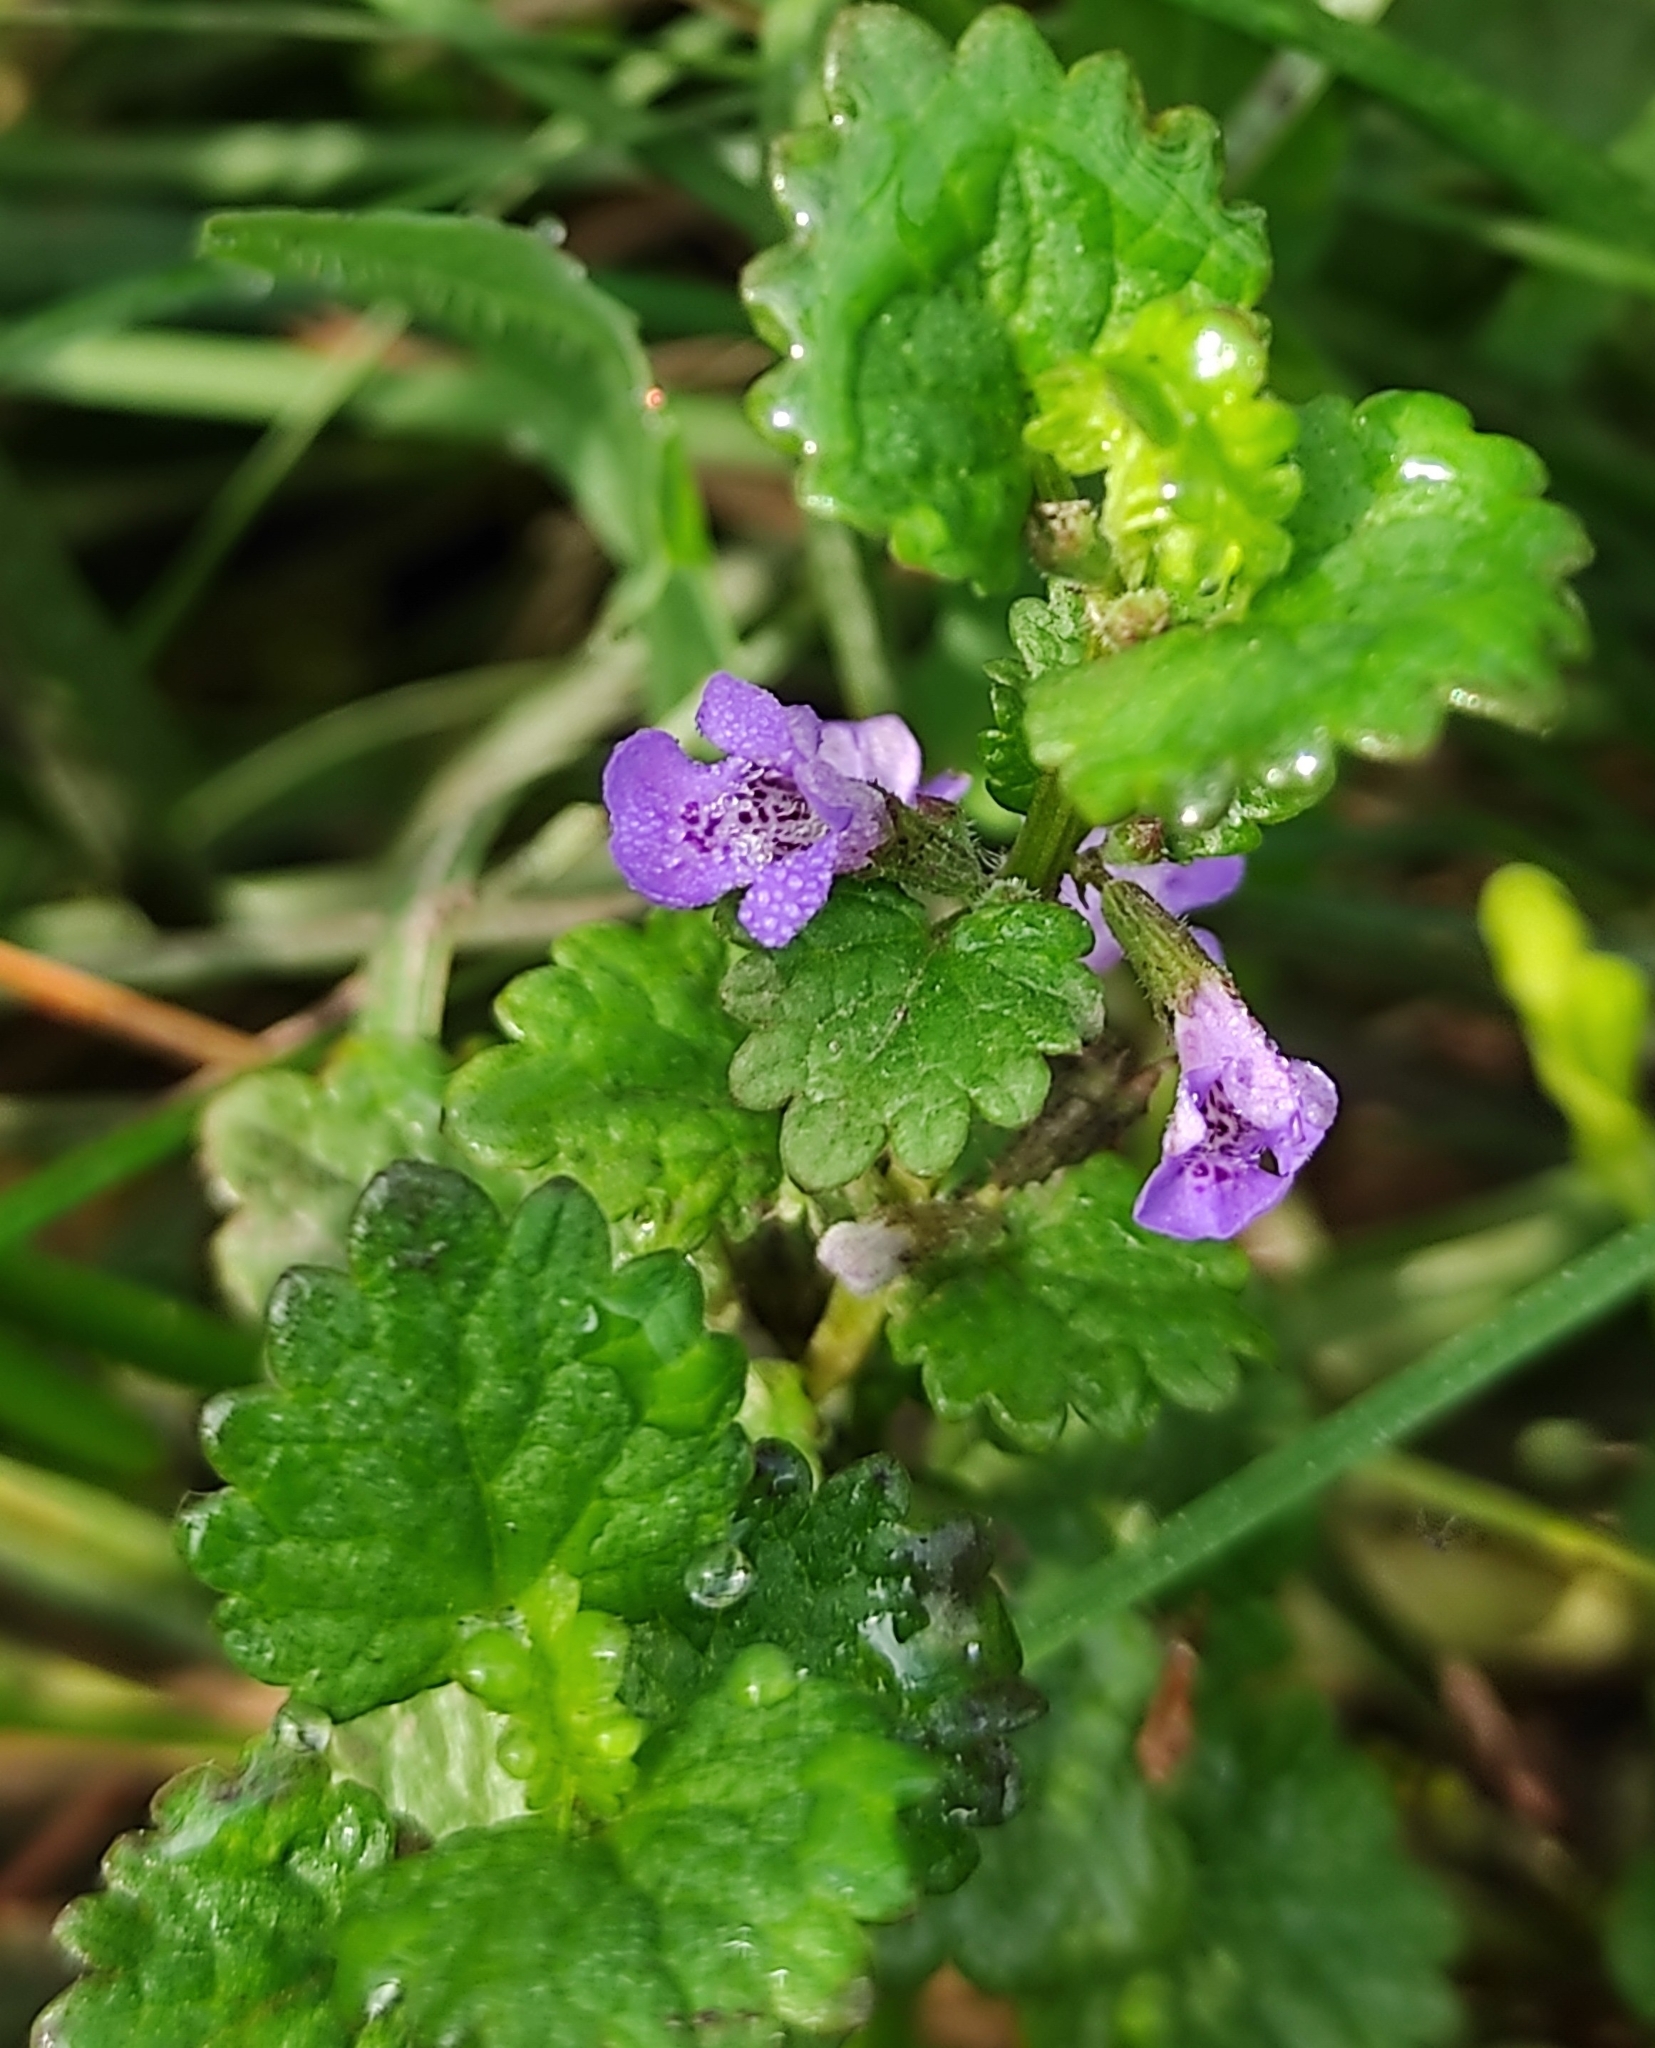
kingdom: Plantae
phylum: Tracheophyta
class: Magnoliopsida
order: Lamiales
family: Lamiaceae
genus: Glechoma
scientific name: Glechoma hederacea
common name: Ground ivy
